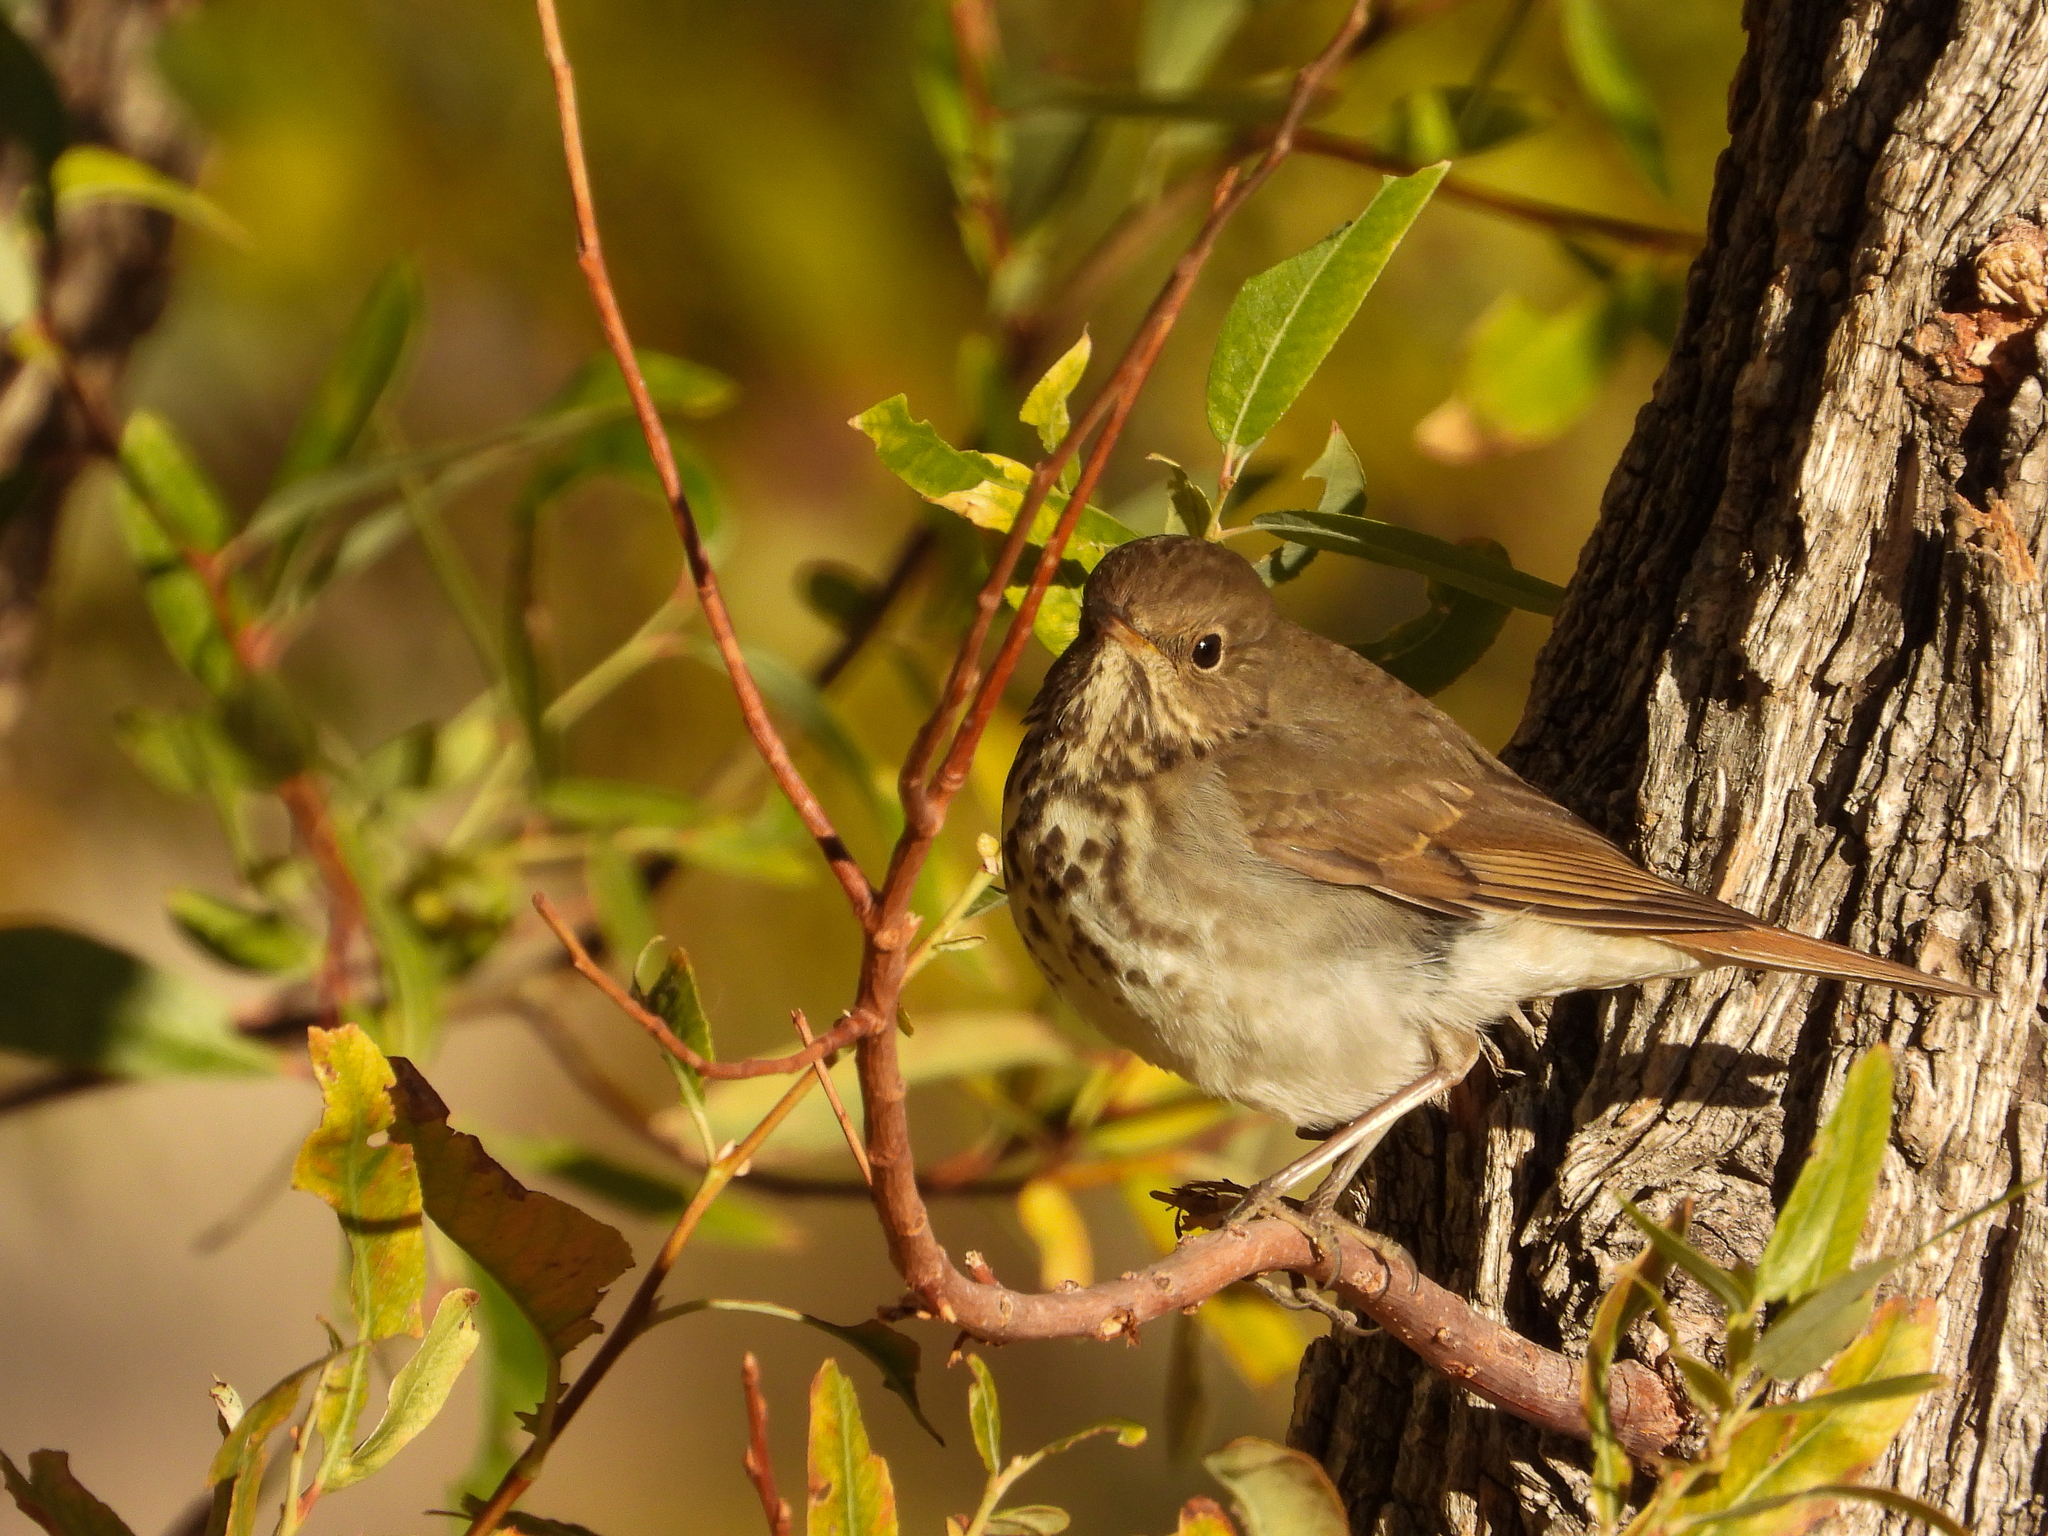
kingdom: Animalia
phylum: Chordata
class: Aves
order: Passeriformes
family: Turdidae
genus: Catharus
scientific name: Catharus guttatus
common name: Hermit thrush
